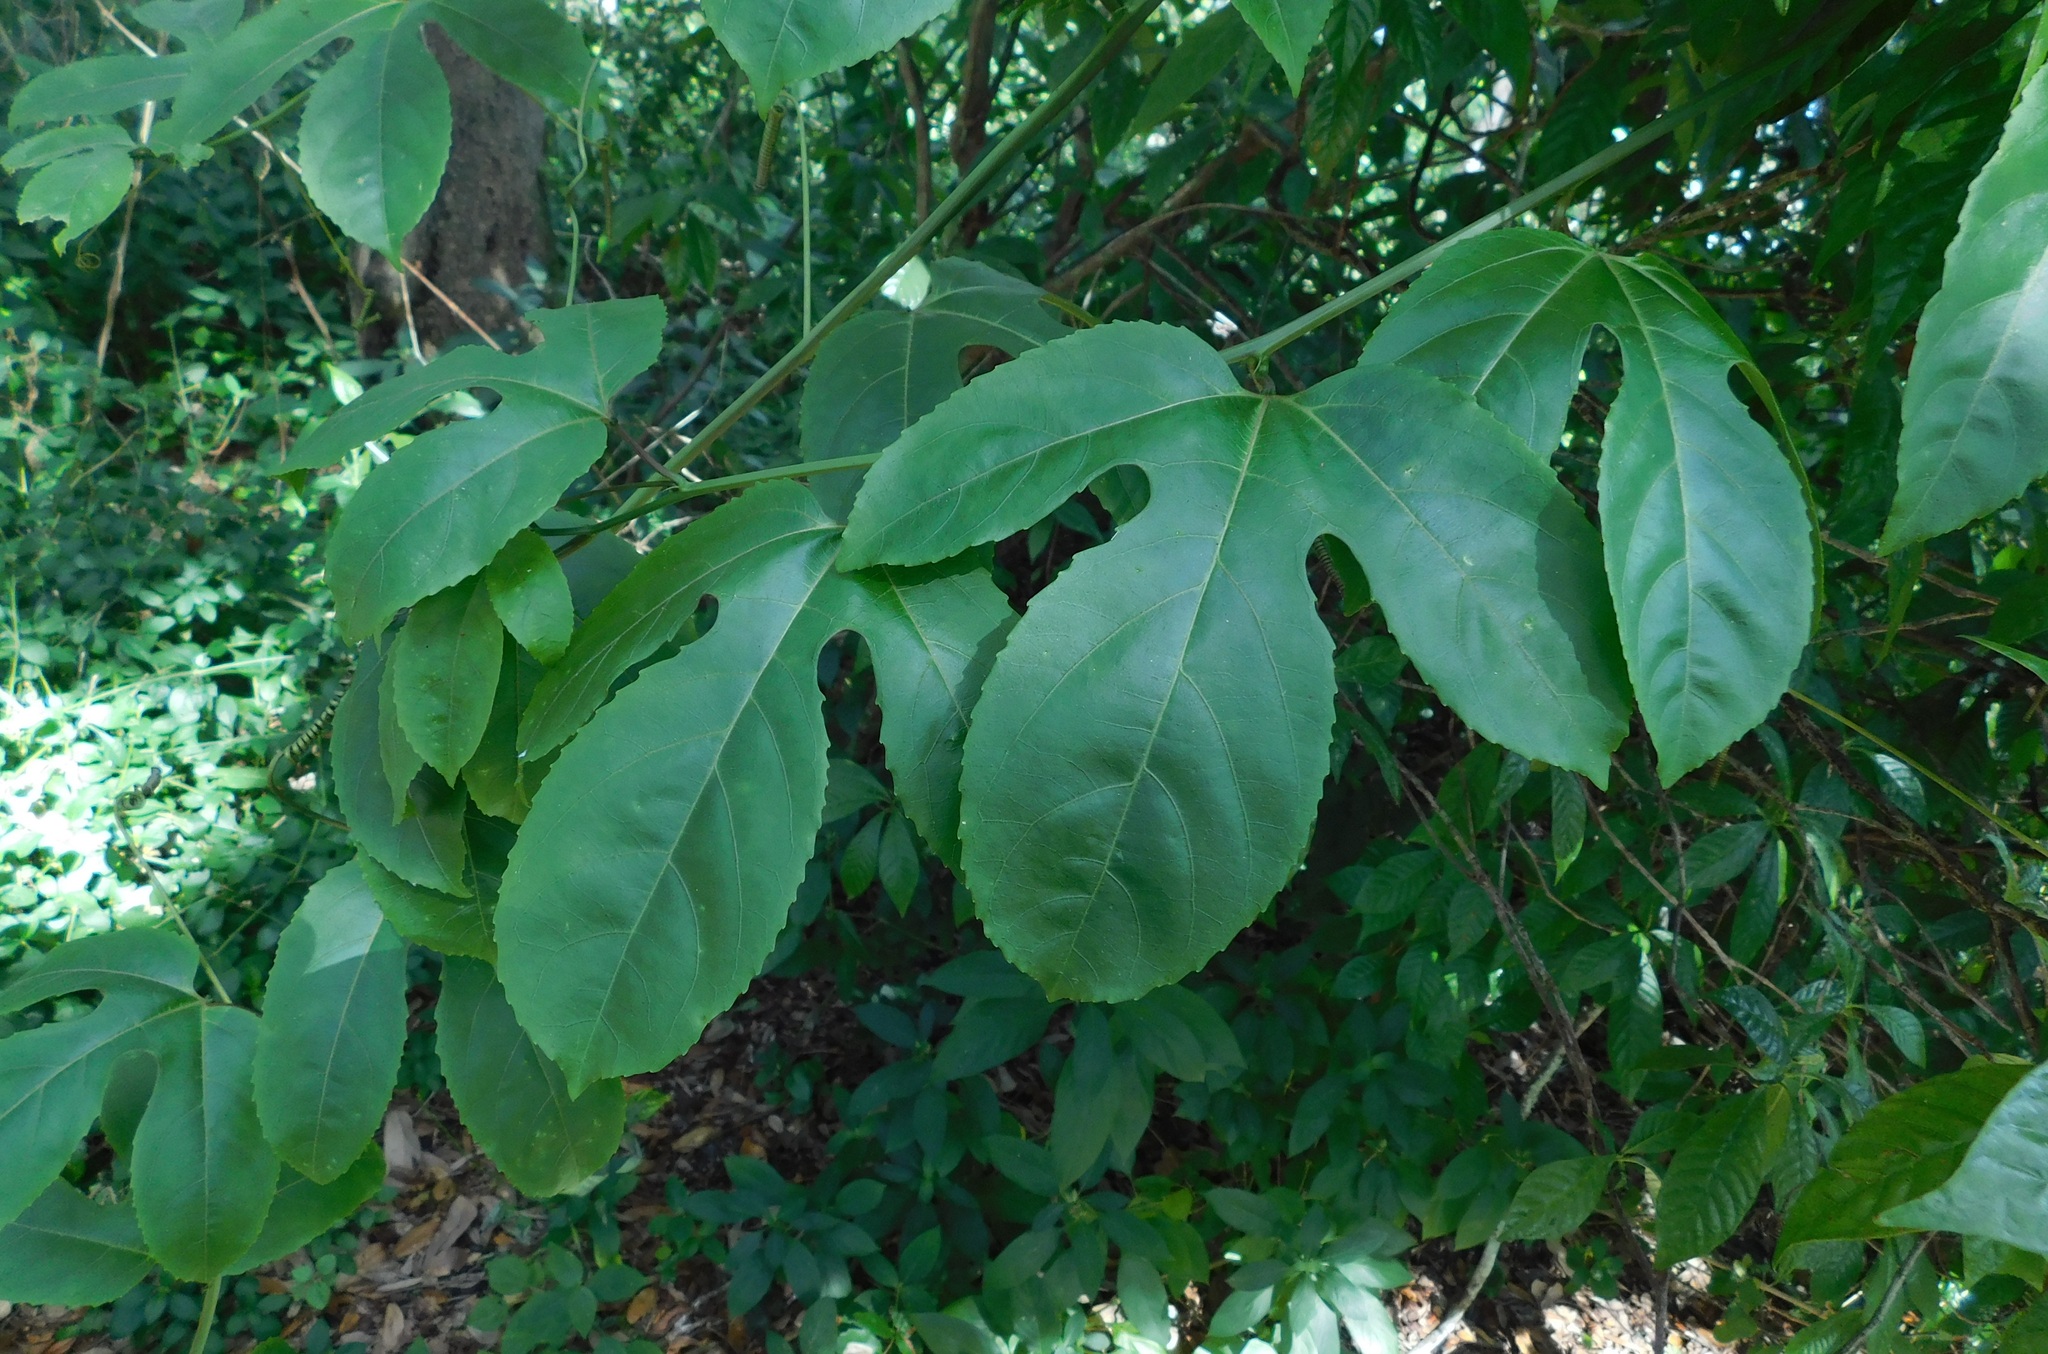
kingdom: Plantae
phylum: Tracheophyta
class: Magnoliopsida
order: Malpighiales
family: Passifloraceae
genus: Passiflora
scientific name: Passiflora edulis
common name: Purple granadilla
